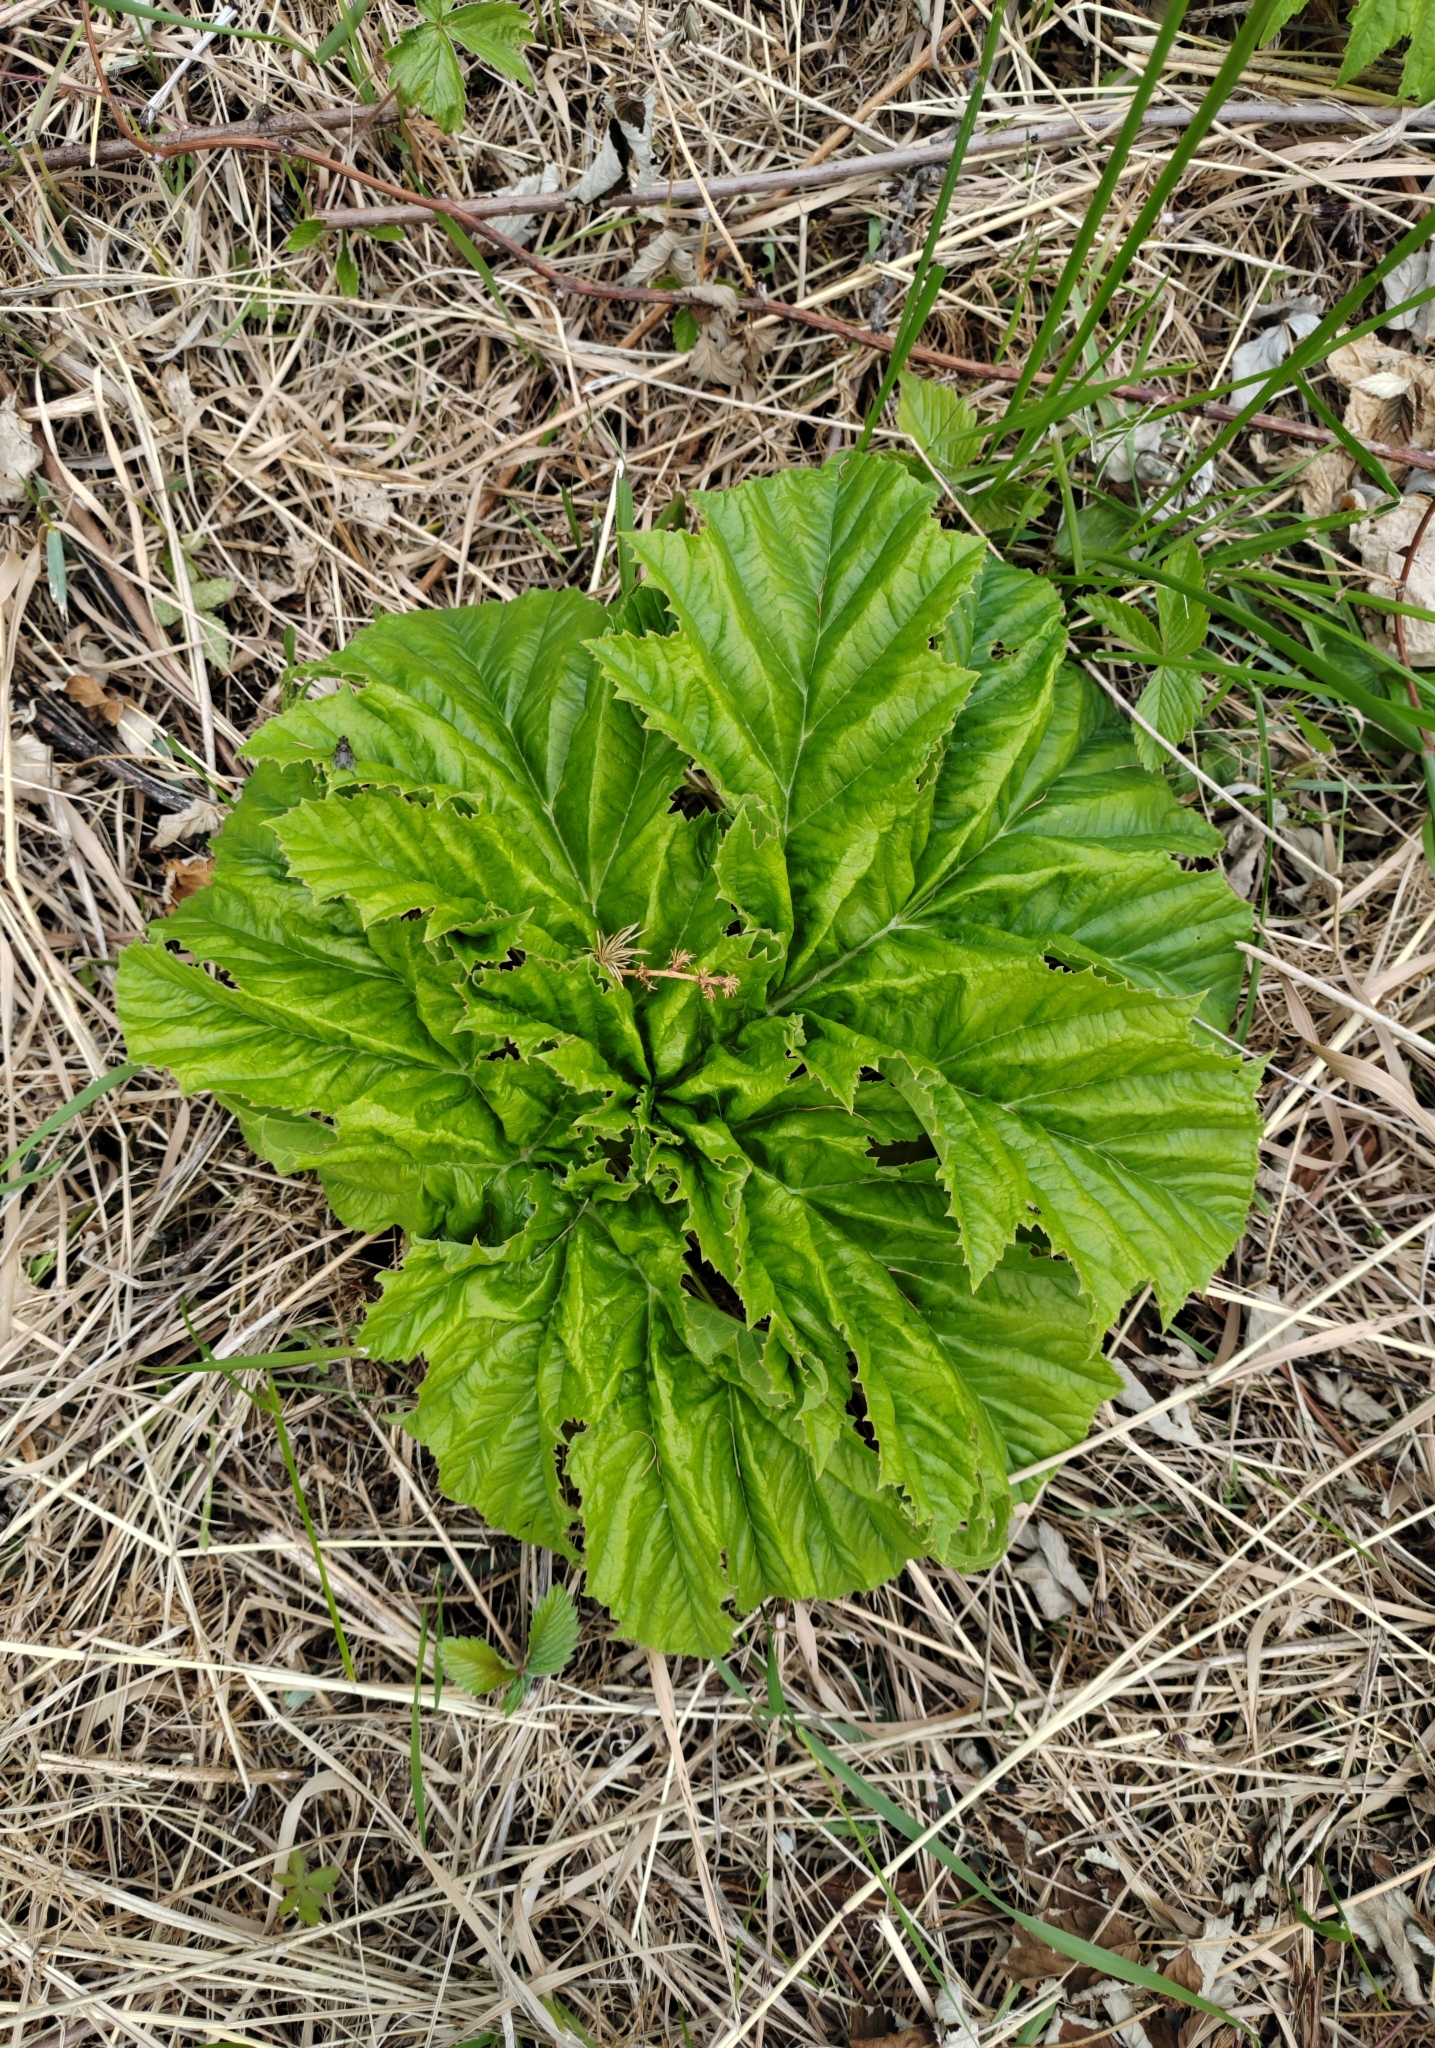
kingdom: Plantae
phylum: Tracheophyta
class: Magnoliopsida
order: Apiales
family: Apiaceae
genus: Heracleum
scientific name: Heracleum sosnowskyi
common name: Sosnowsky's hogweed
